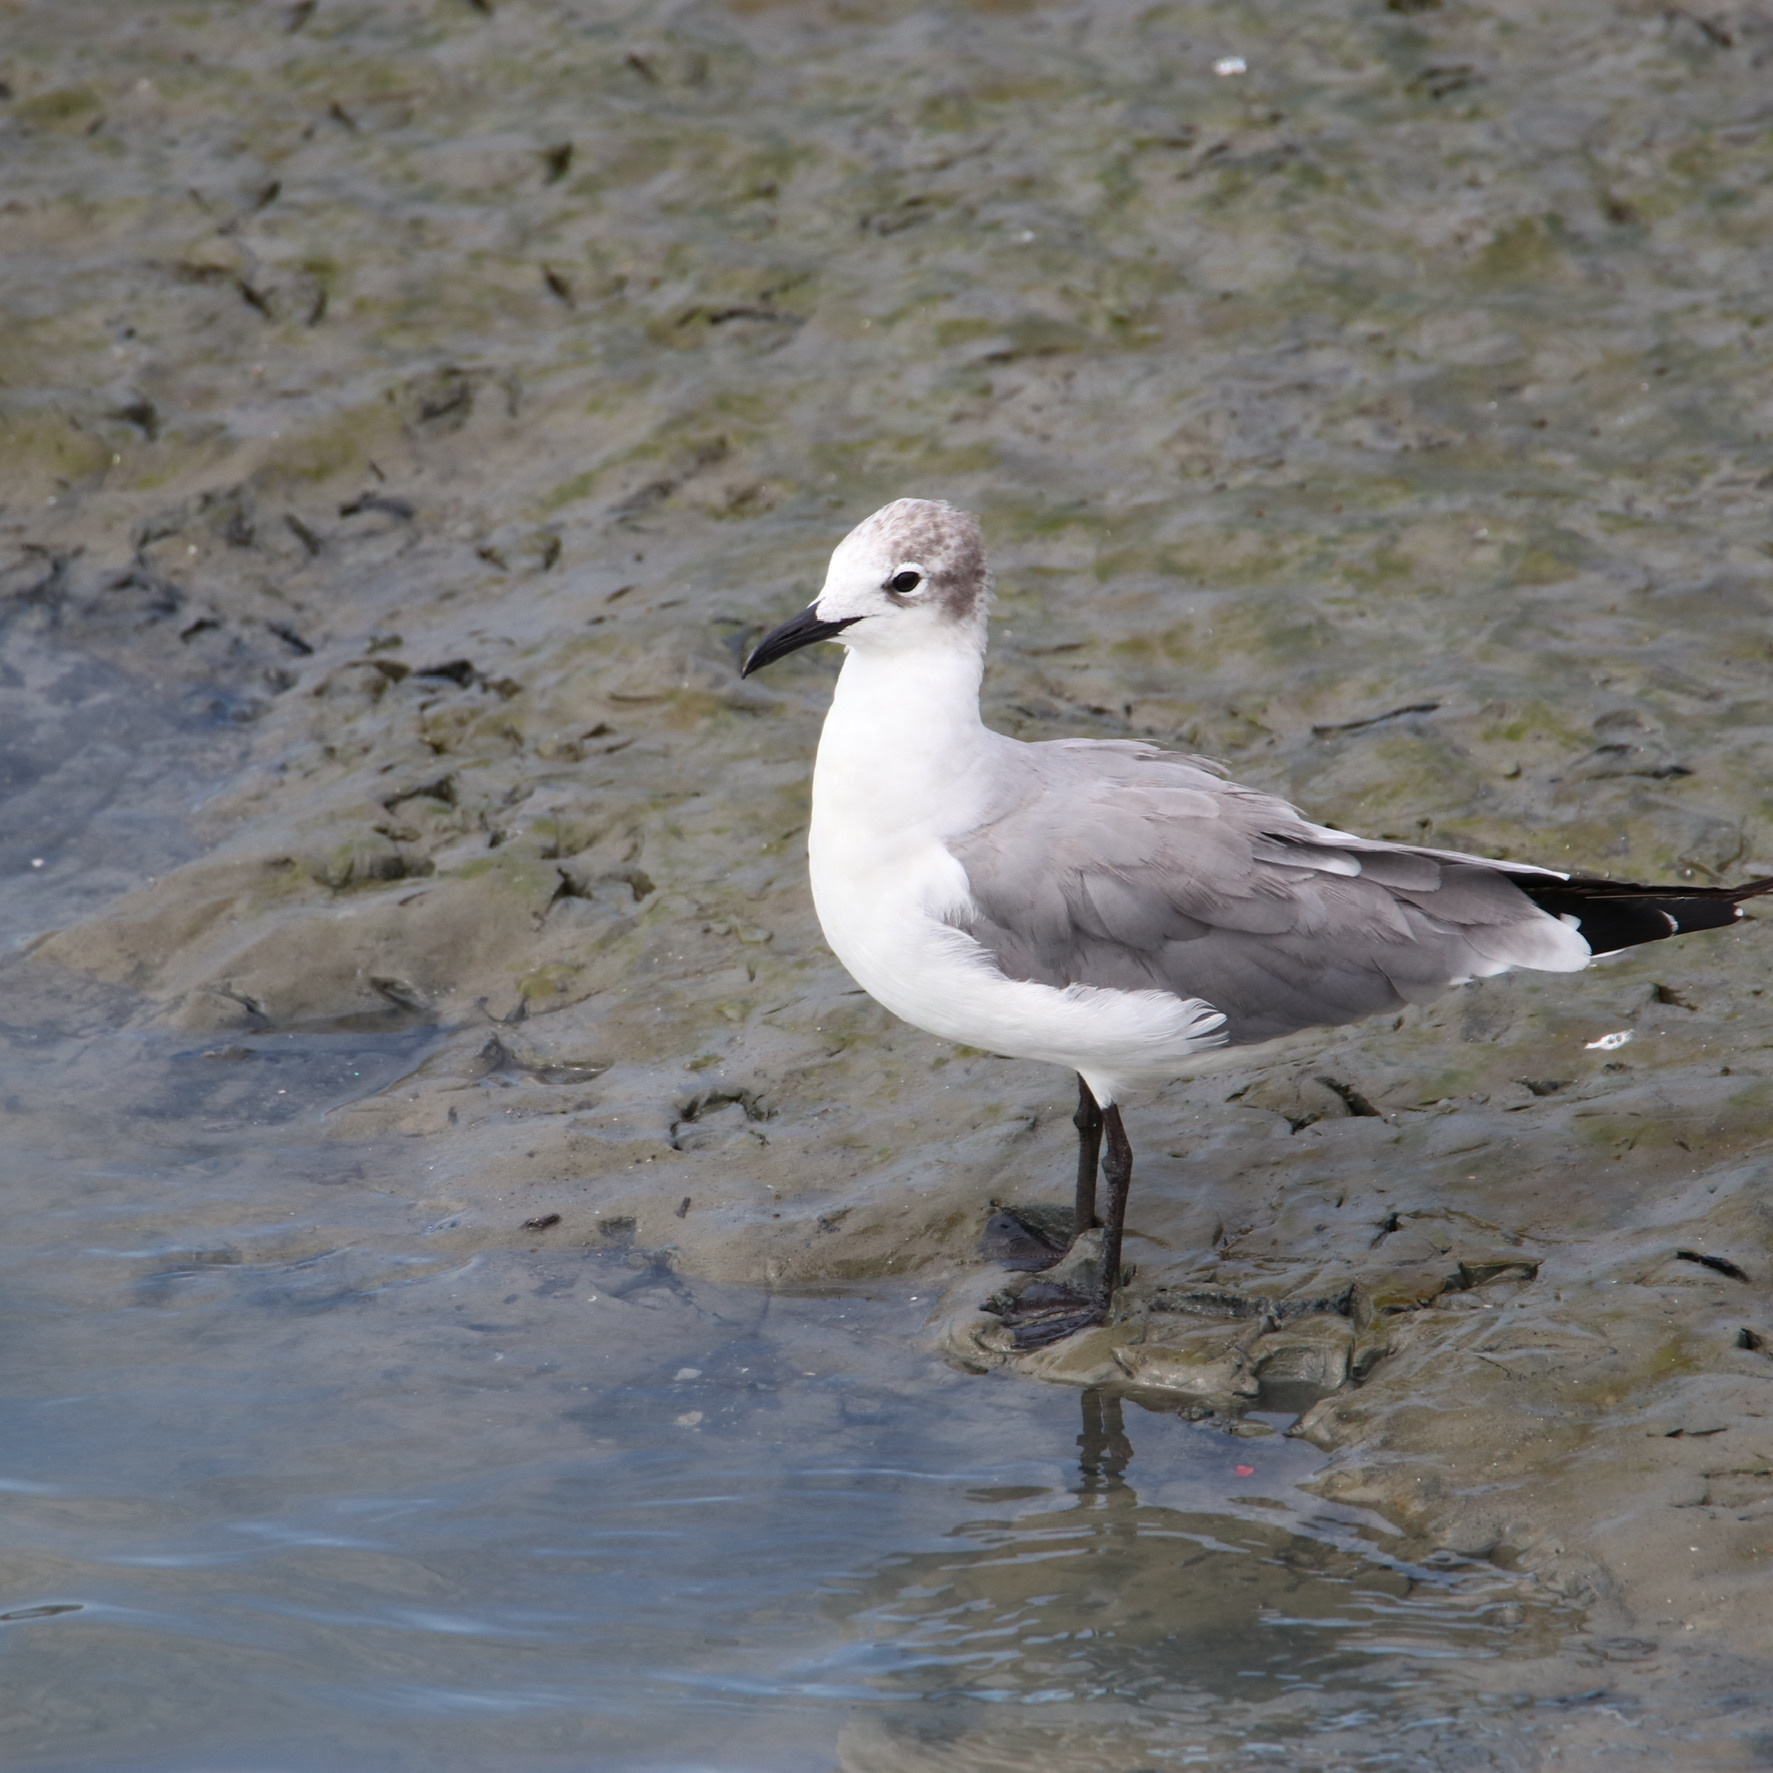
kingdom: Animalia
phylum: Chordata
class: Aves
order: Charadriiformes
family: Laridae
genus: Leucophaeus
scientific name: Leucophaeus atricilla
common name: Laughing gull
